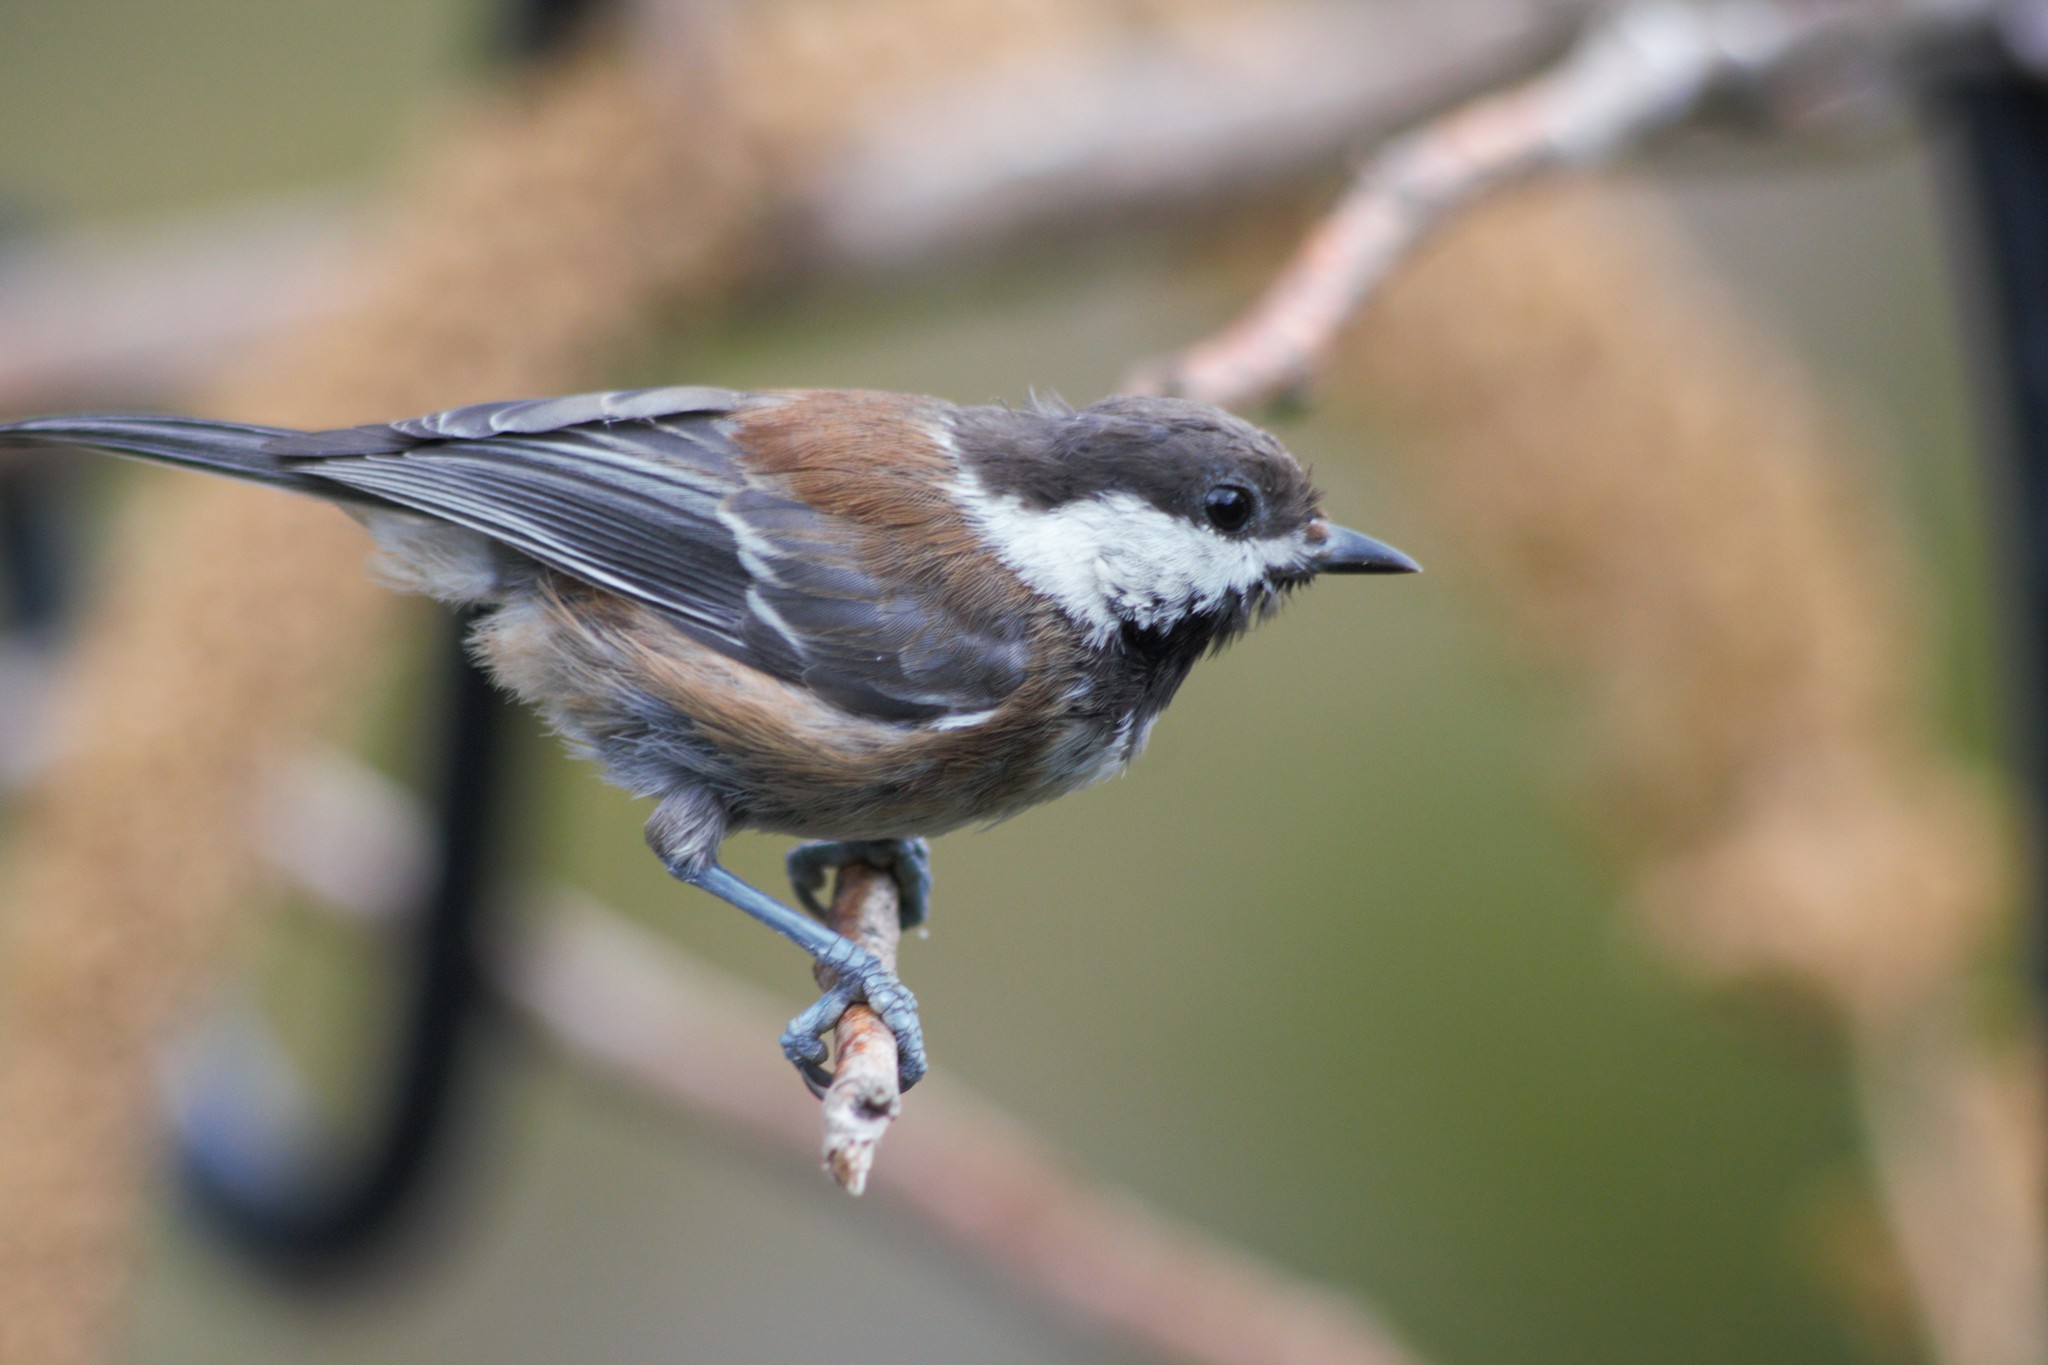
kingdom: Animalia
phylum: Chordata
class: Aves
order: Passeriformes
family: Paridae
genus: Poecile
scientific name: Poecile rufescens
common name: Chestnut-backed chickadee
